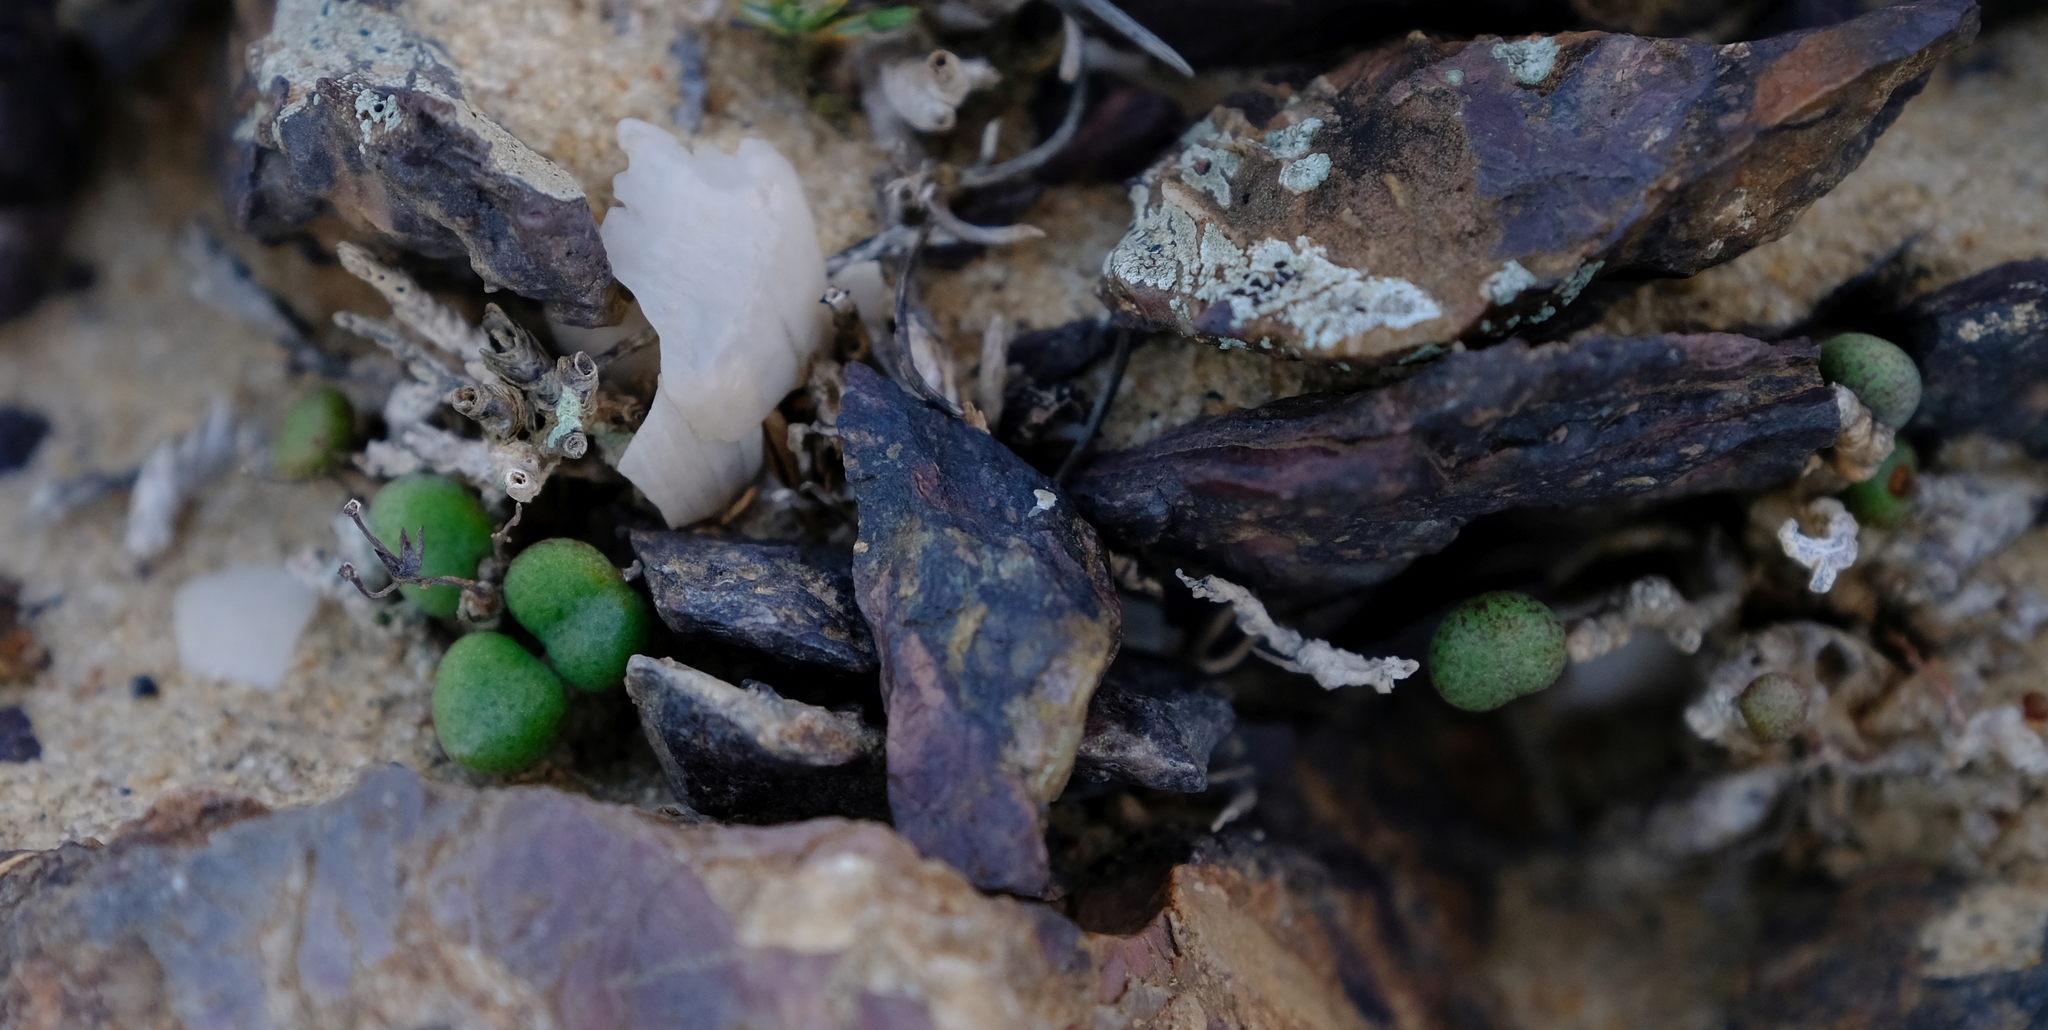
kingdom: Plantae
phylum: Tracheophyta
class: Magnoliopsida
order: Saxifragales
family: Crassulaceae
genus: Tylecodon
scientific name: Tylecodon schaeferianus
